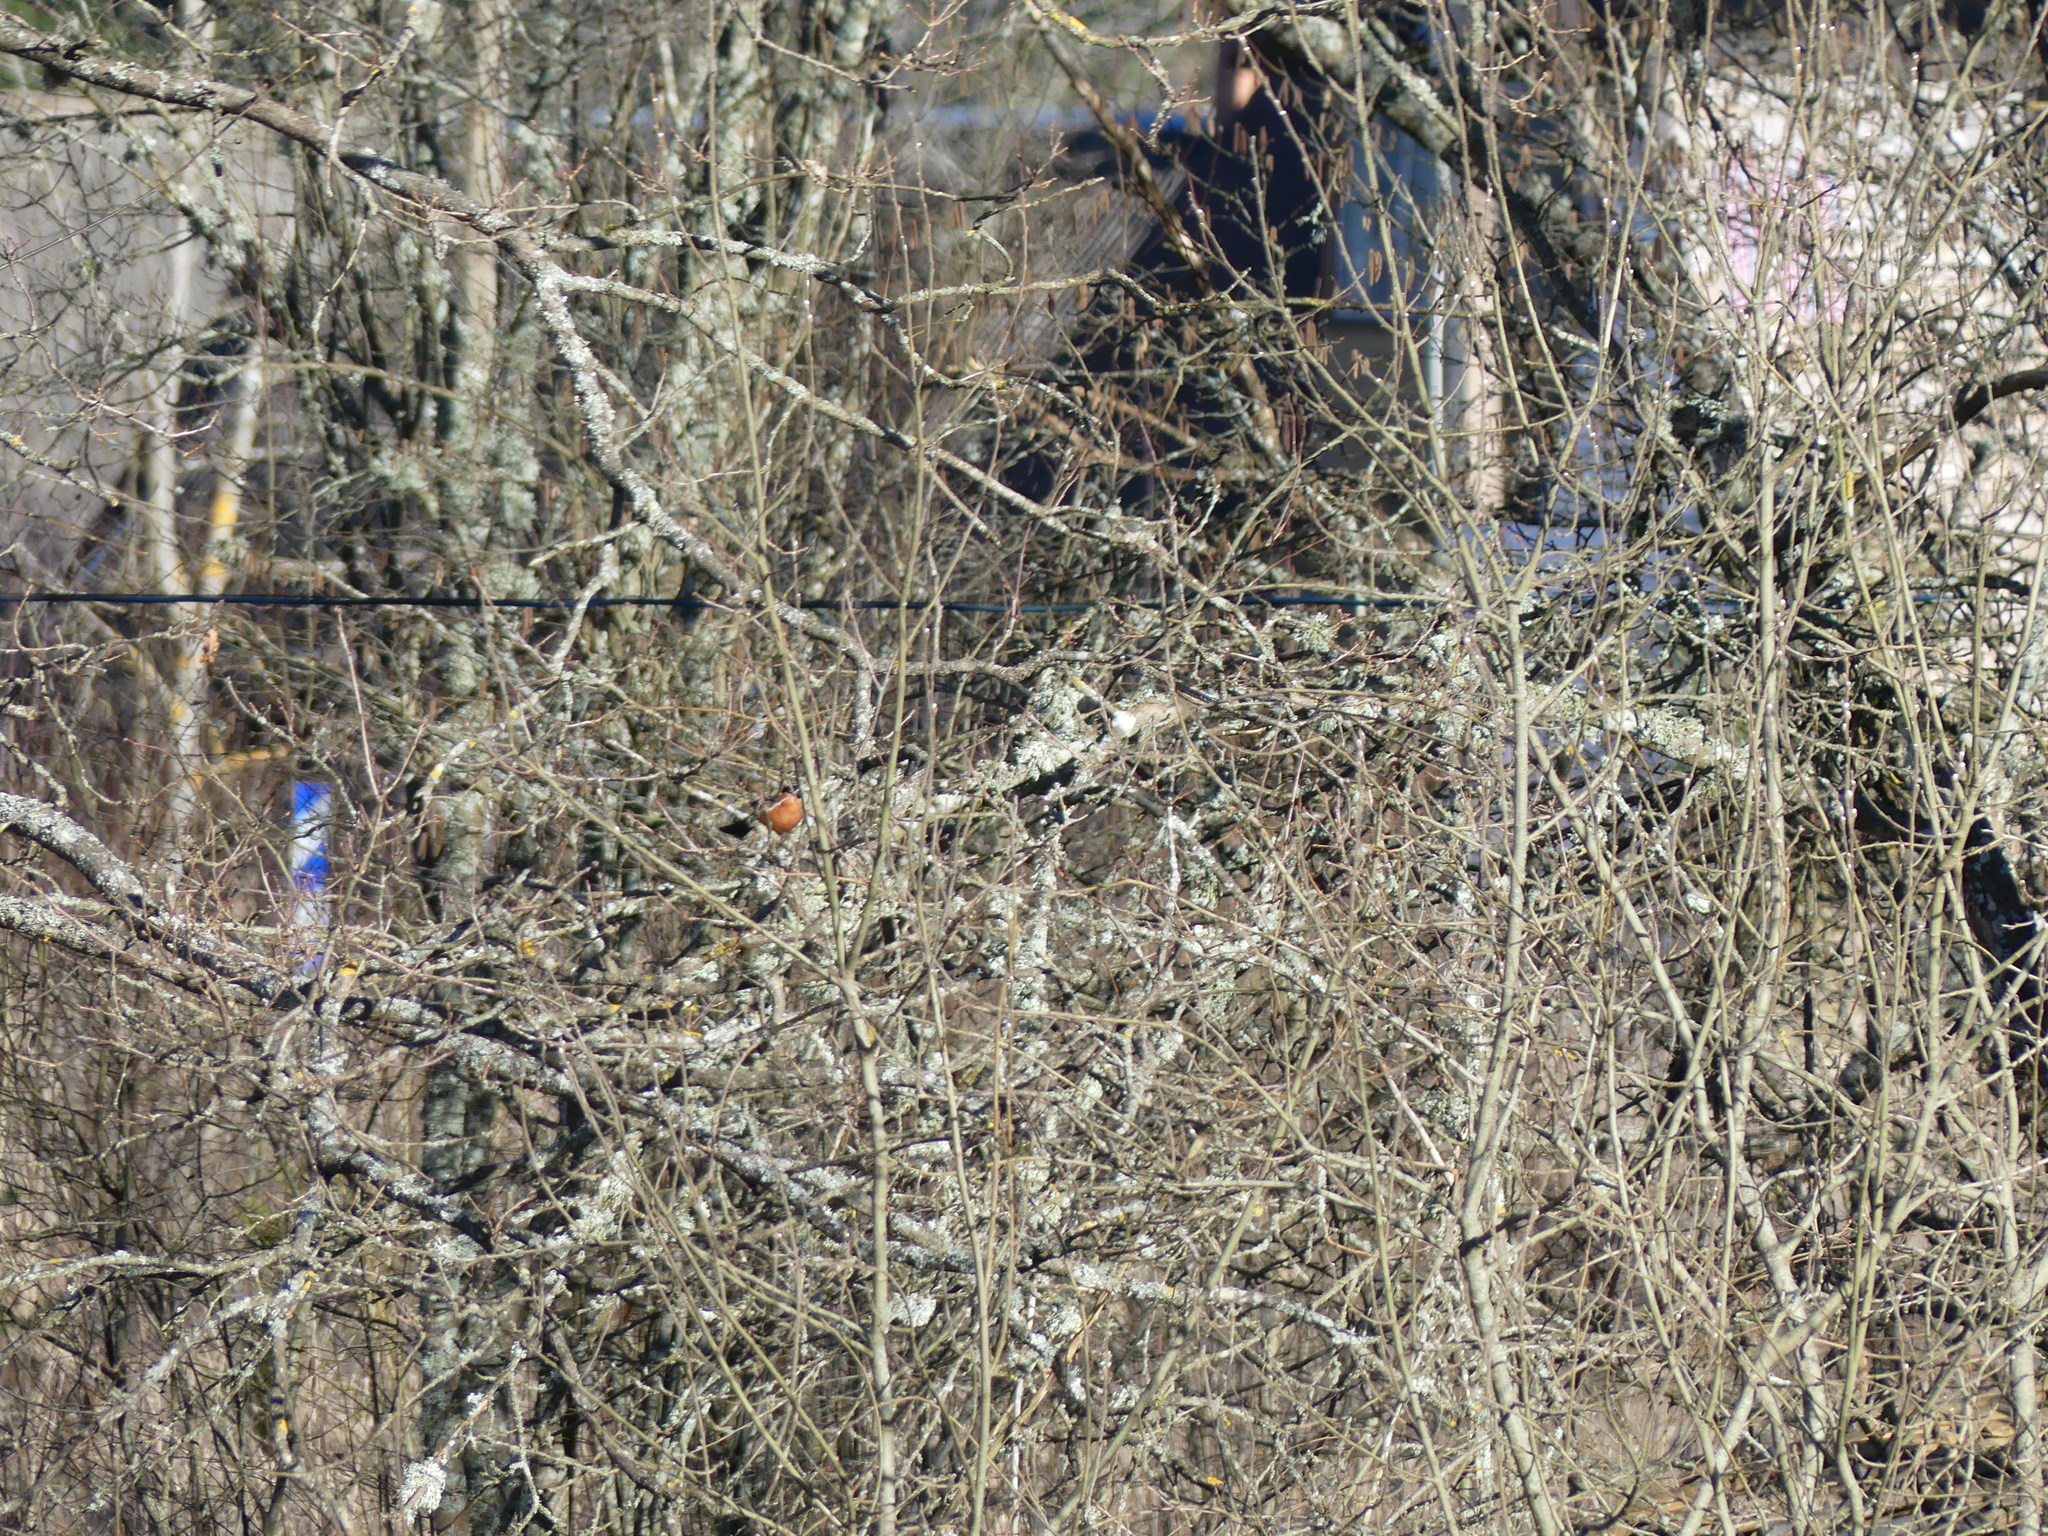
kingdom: Animalia
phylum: Chordata
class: Aves
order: Passeriformes
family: Fringillidae
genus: Pyrrhula
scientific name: Pyrrhula pyrrhula
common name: Eurasian bullfinch
